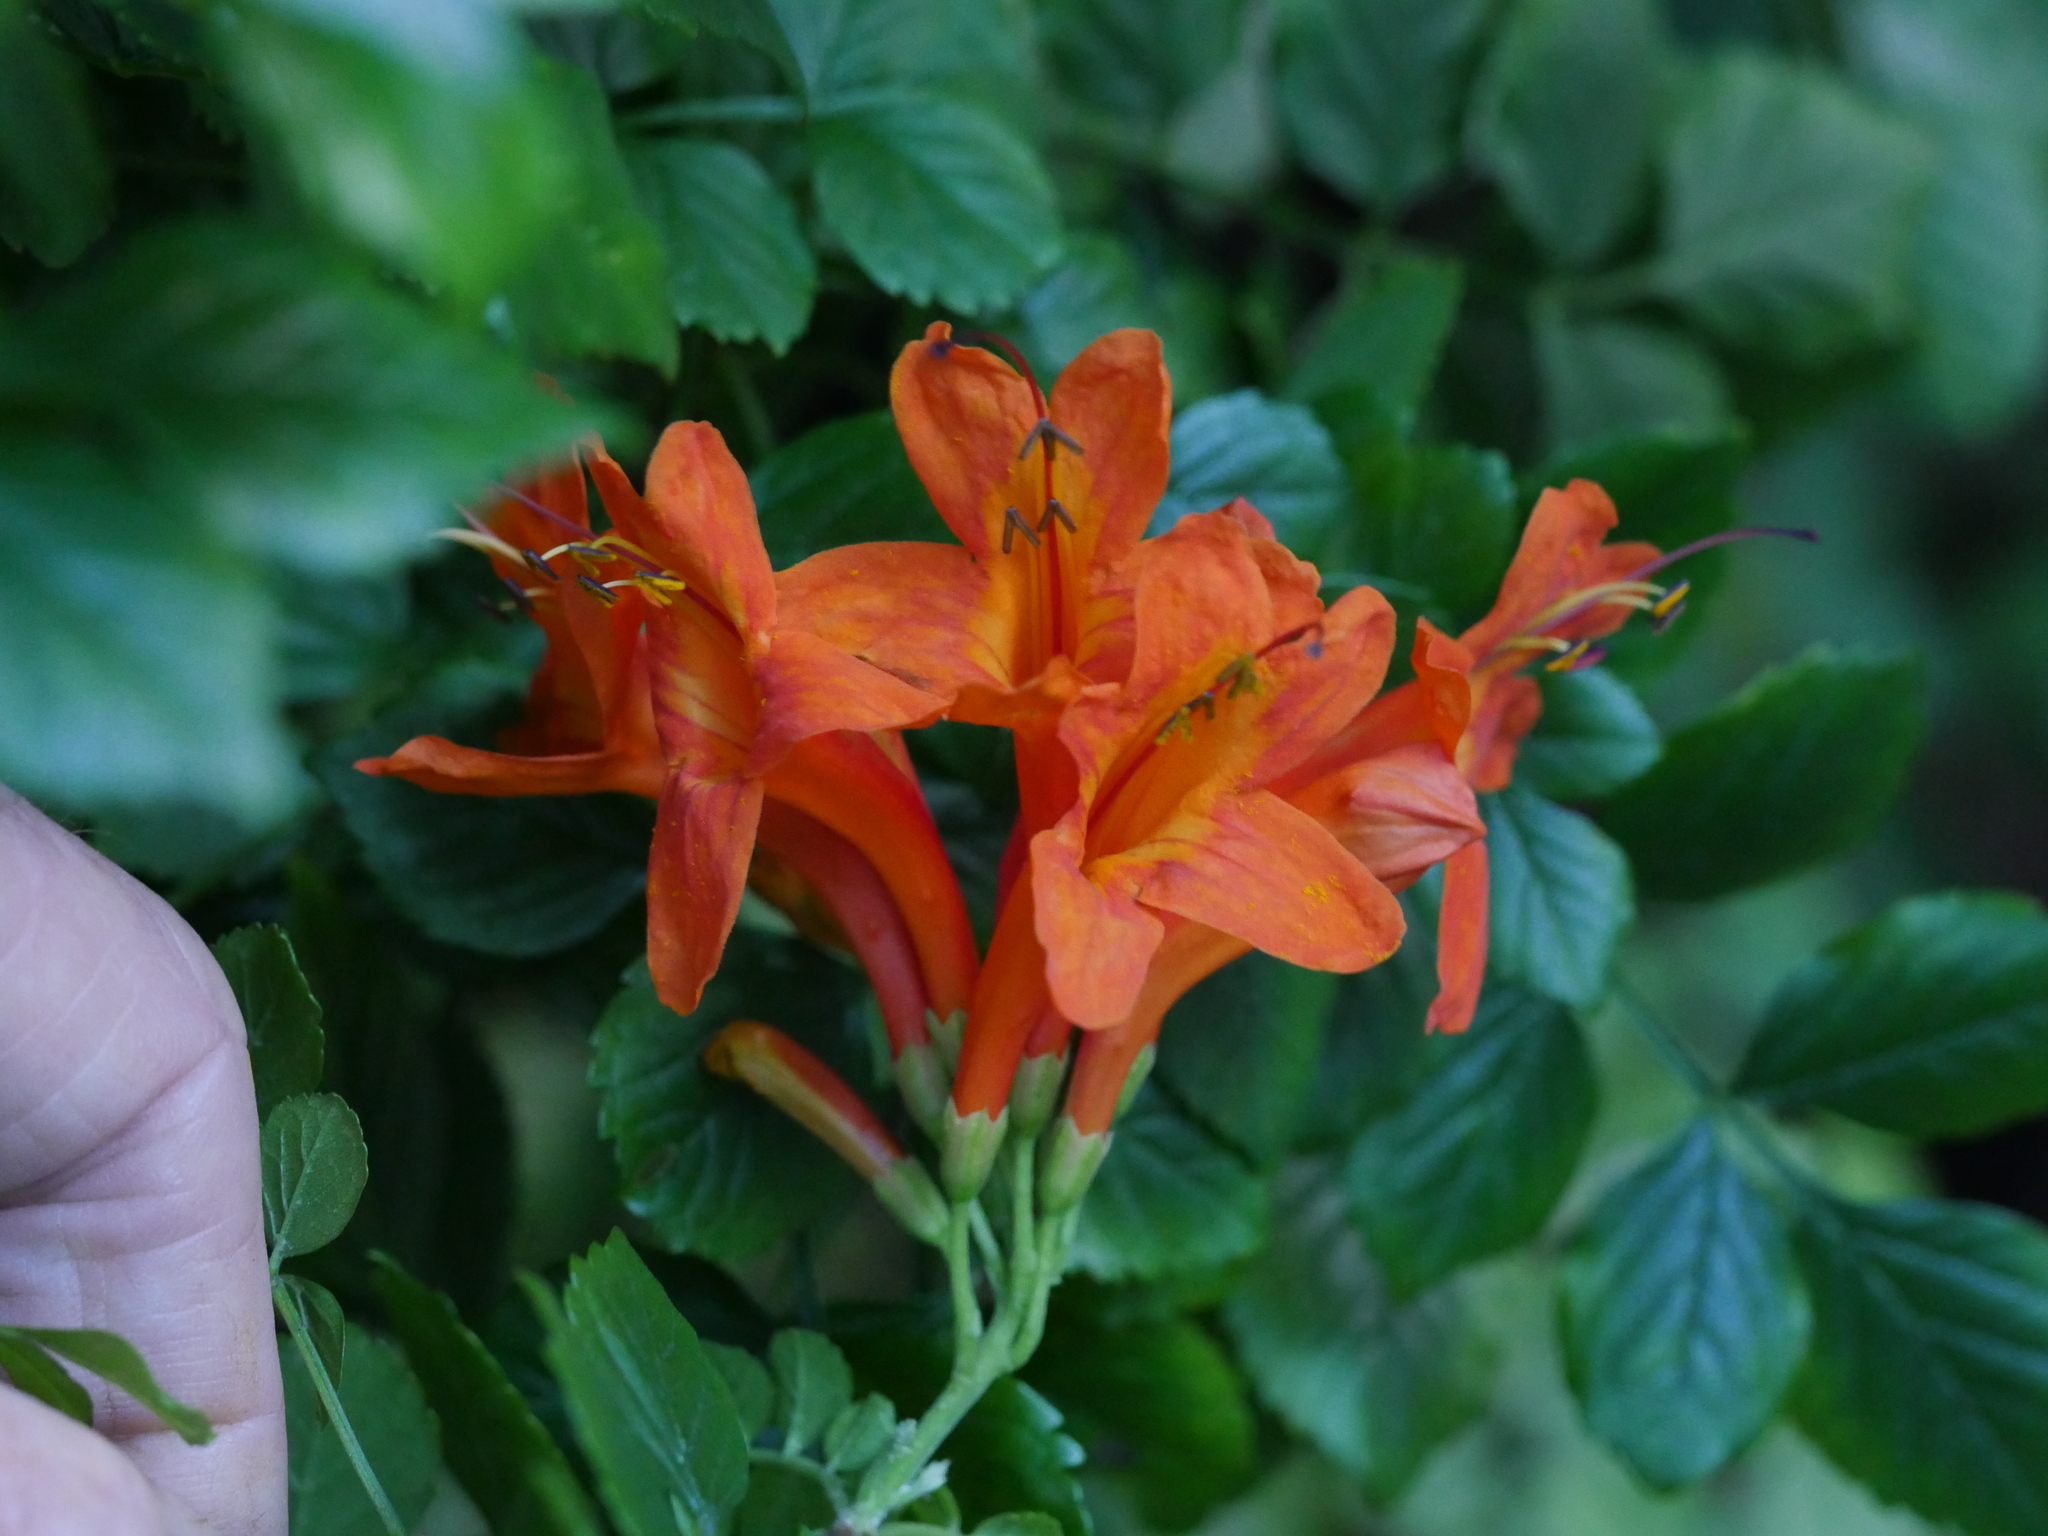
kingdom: Plantae
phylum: Tracheophyta
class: Magnoliopsida
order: Lamiales
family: Bignoniaceae
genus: Tecomaria
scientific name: Tecomaria capensis
